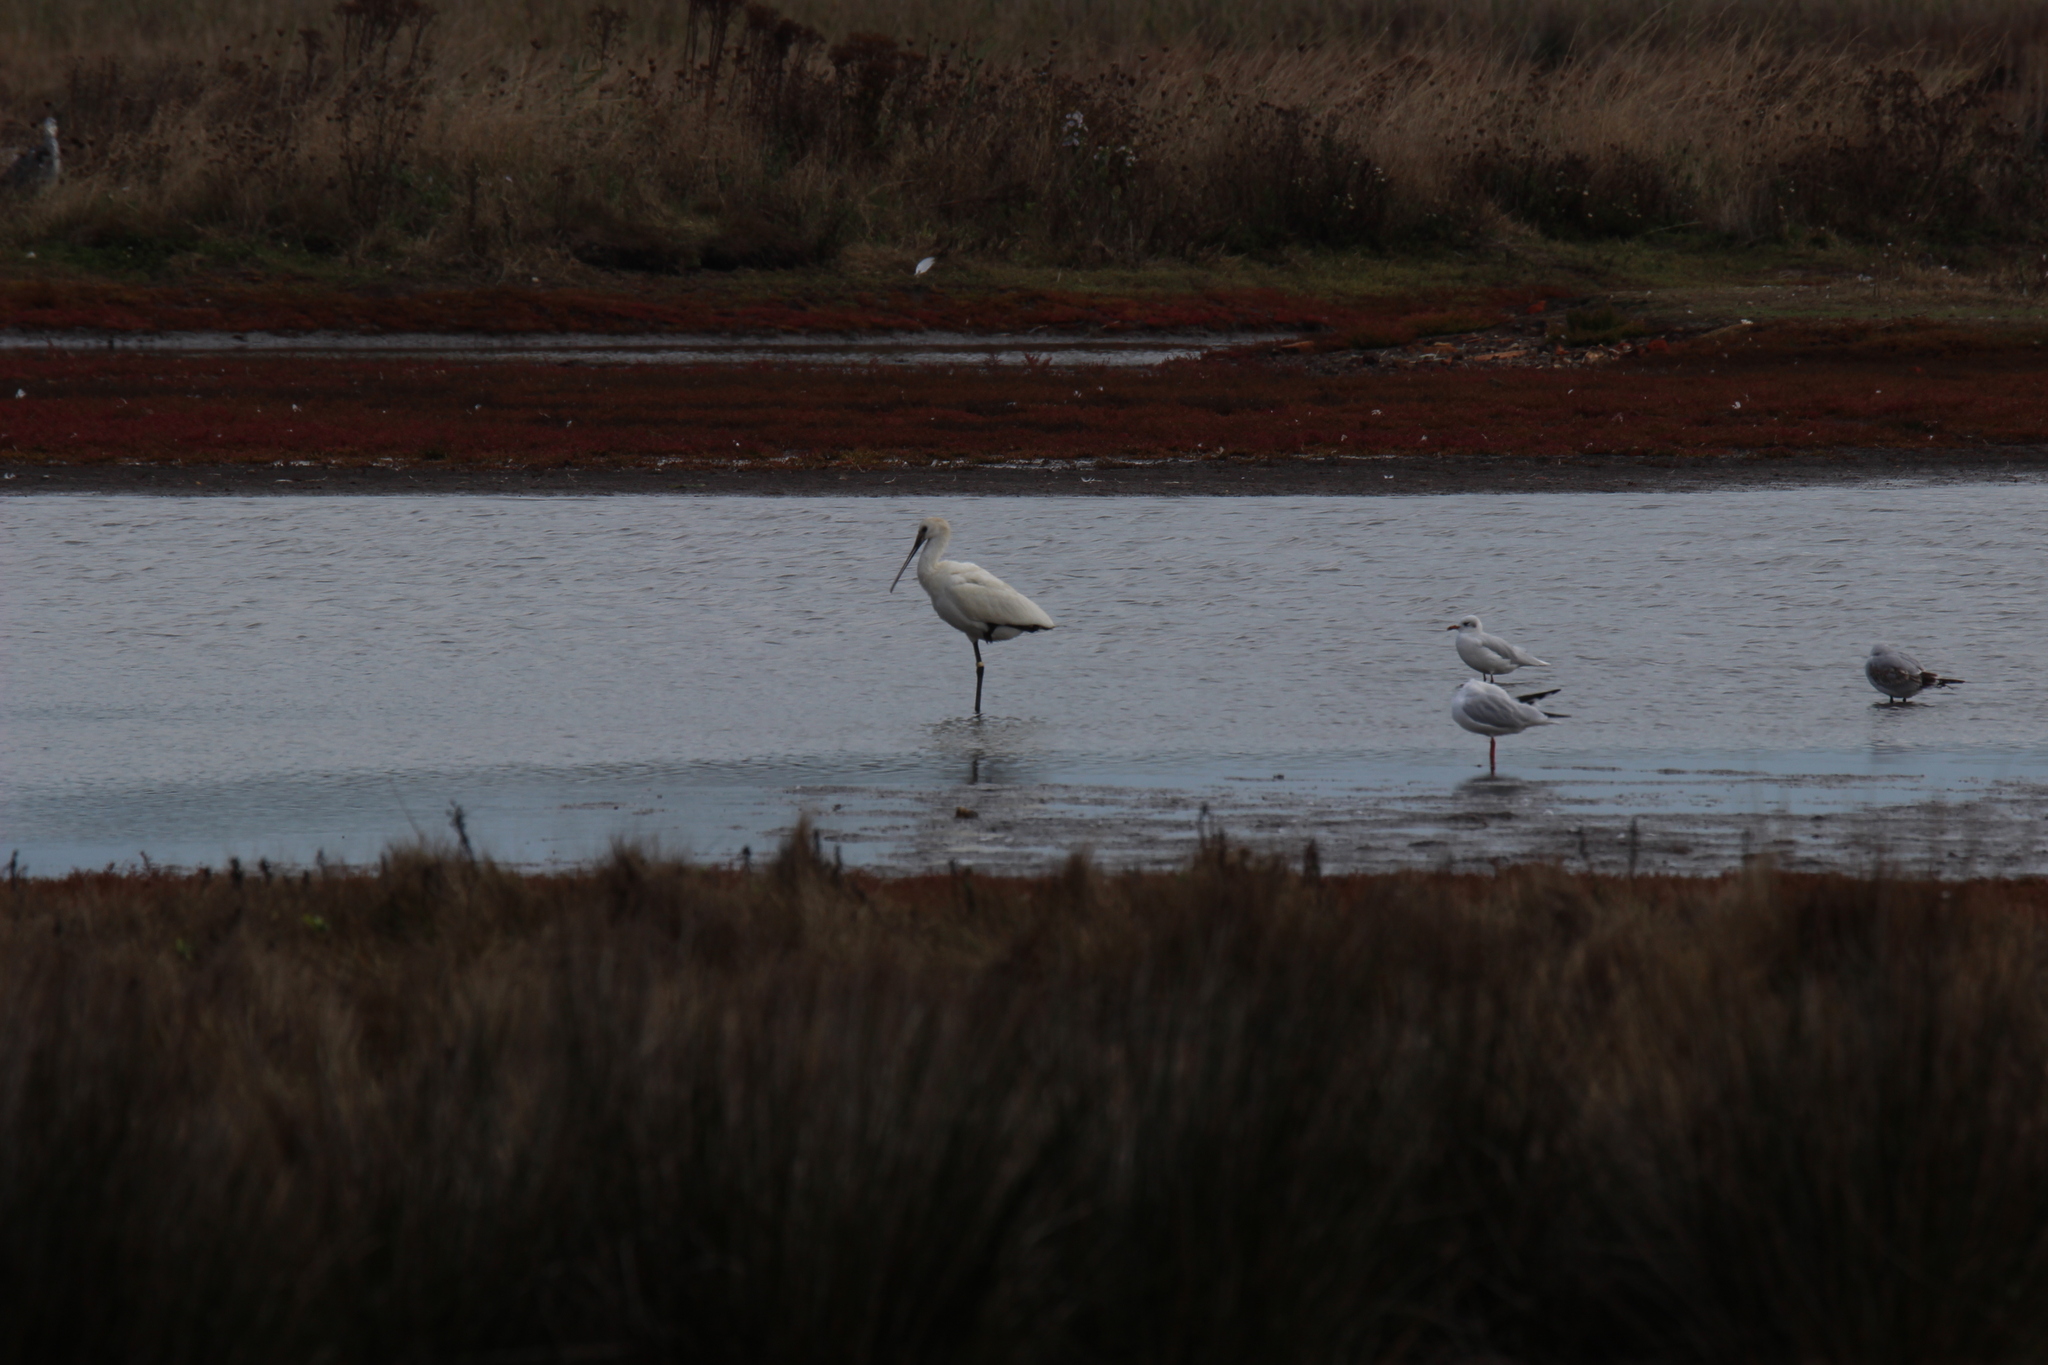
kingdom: Animalia
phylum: Chordata
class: Aves
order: Pelecaniformes
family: Threskiornithidae
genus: Platalea
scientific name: Platalea leucorodia
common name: Eurasian spoonbill
